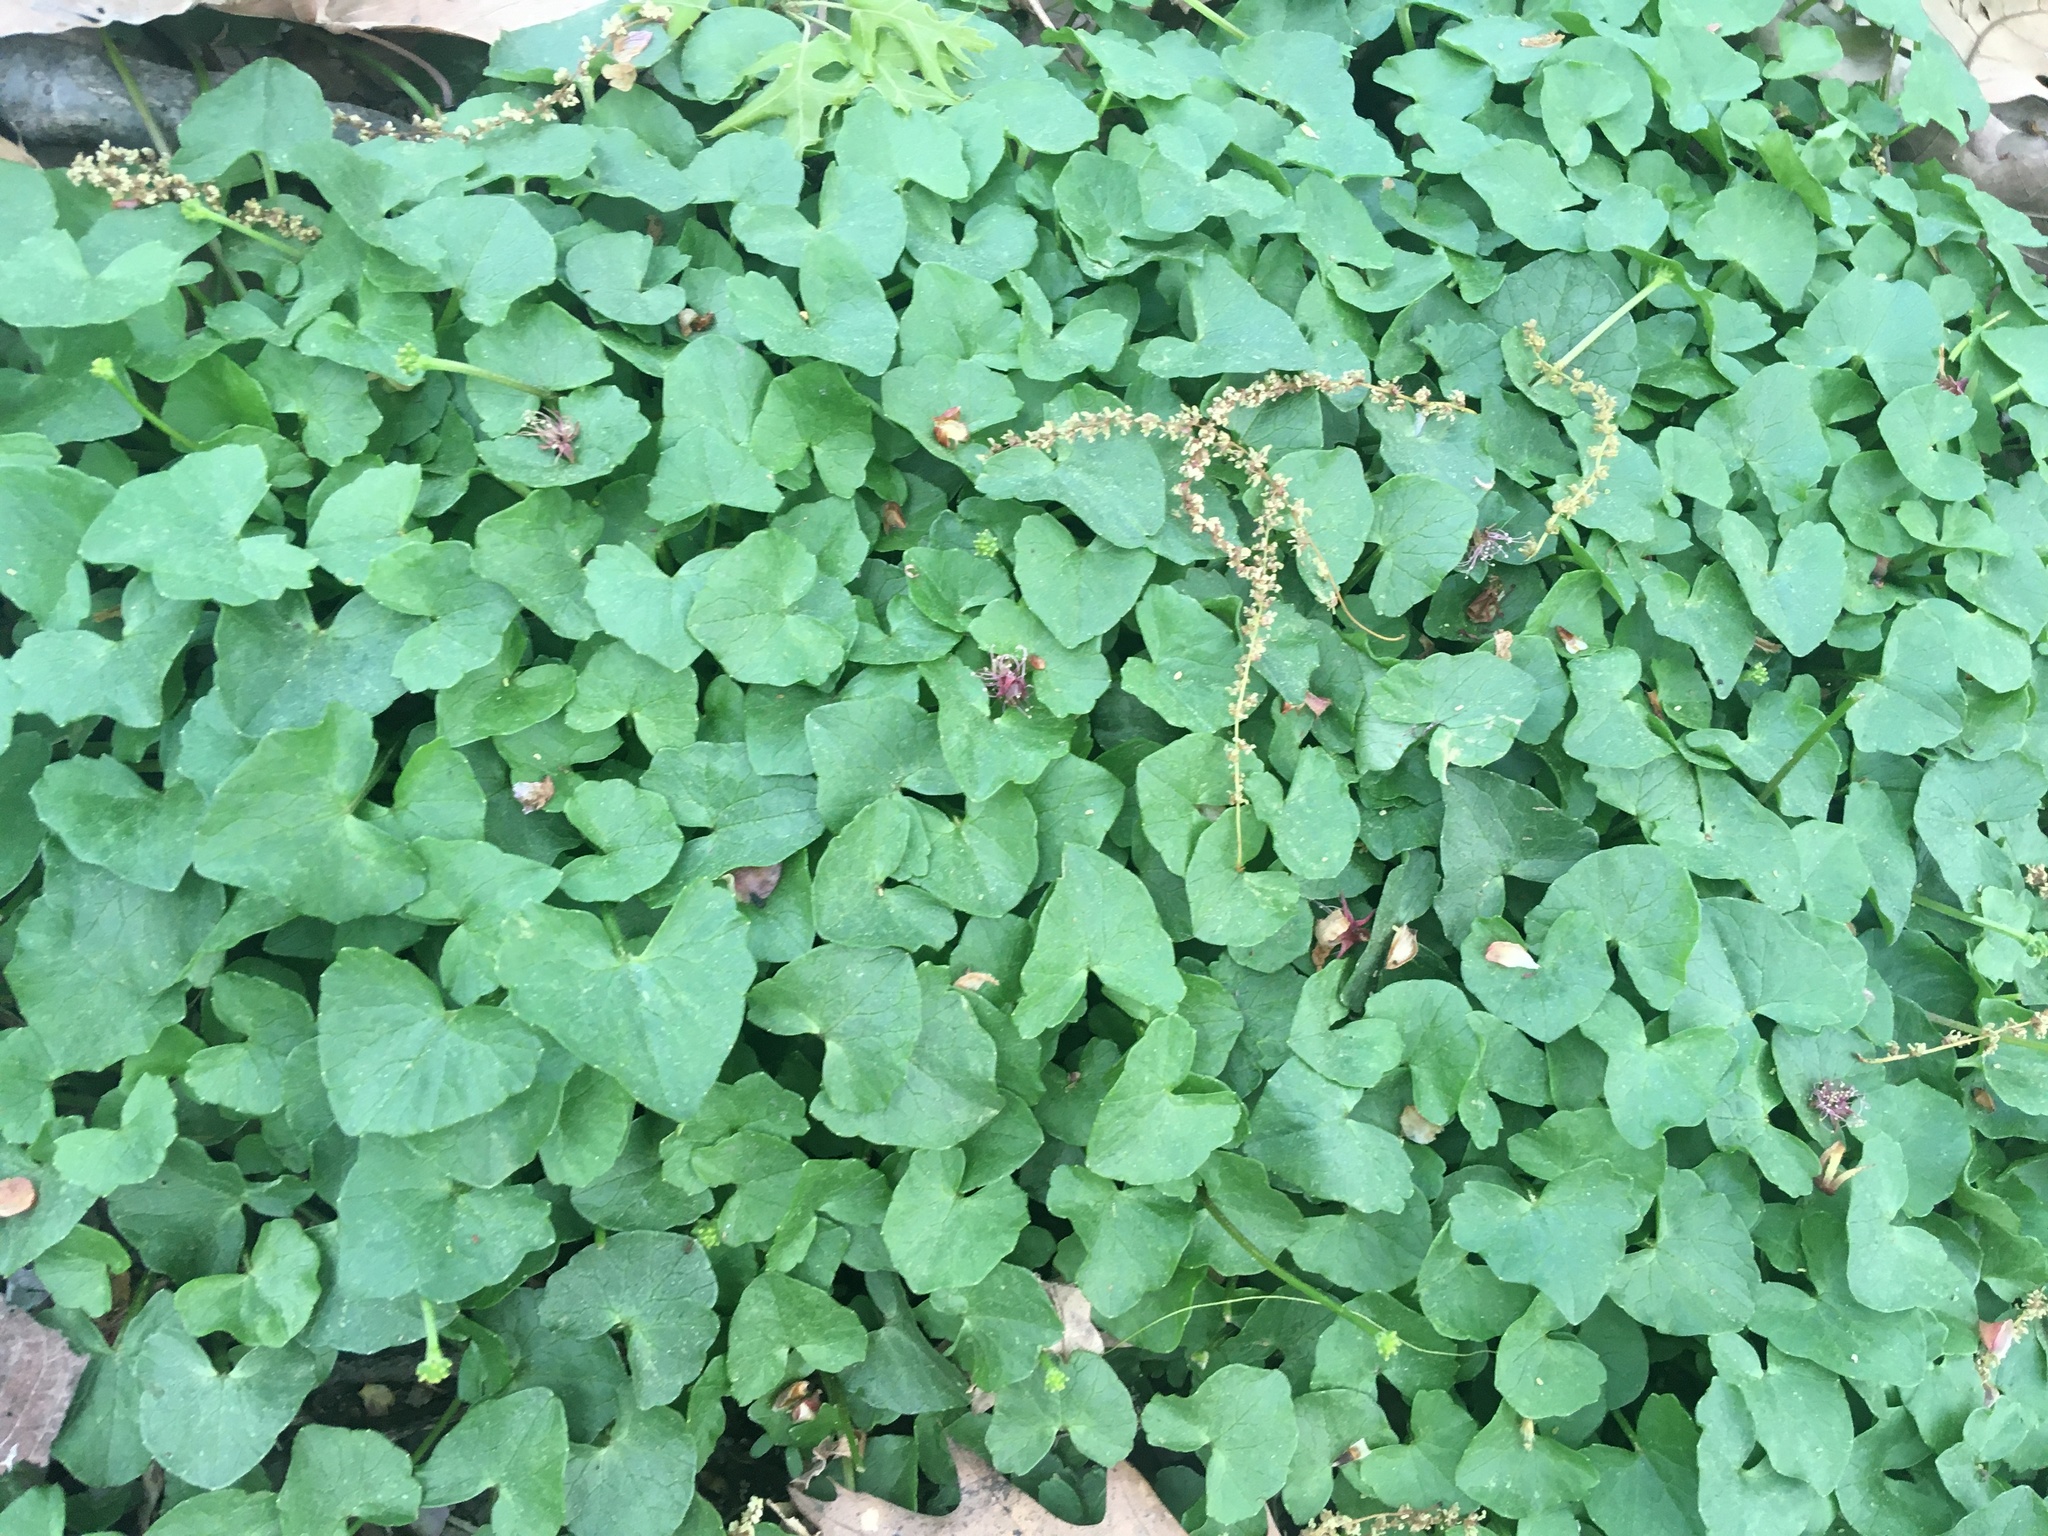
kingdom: Plantae
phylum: Tracheophyta
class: Magnoliopsida
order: Ranunculales
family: Ranunculaceae
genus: Ficaria
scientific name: Ficaria verna
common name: Lesser celandine
